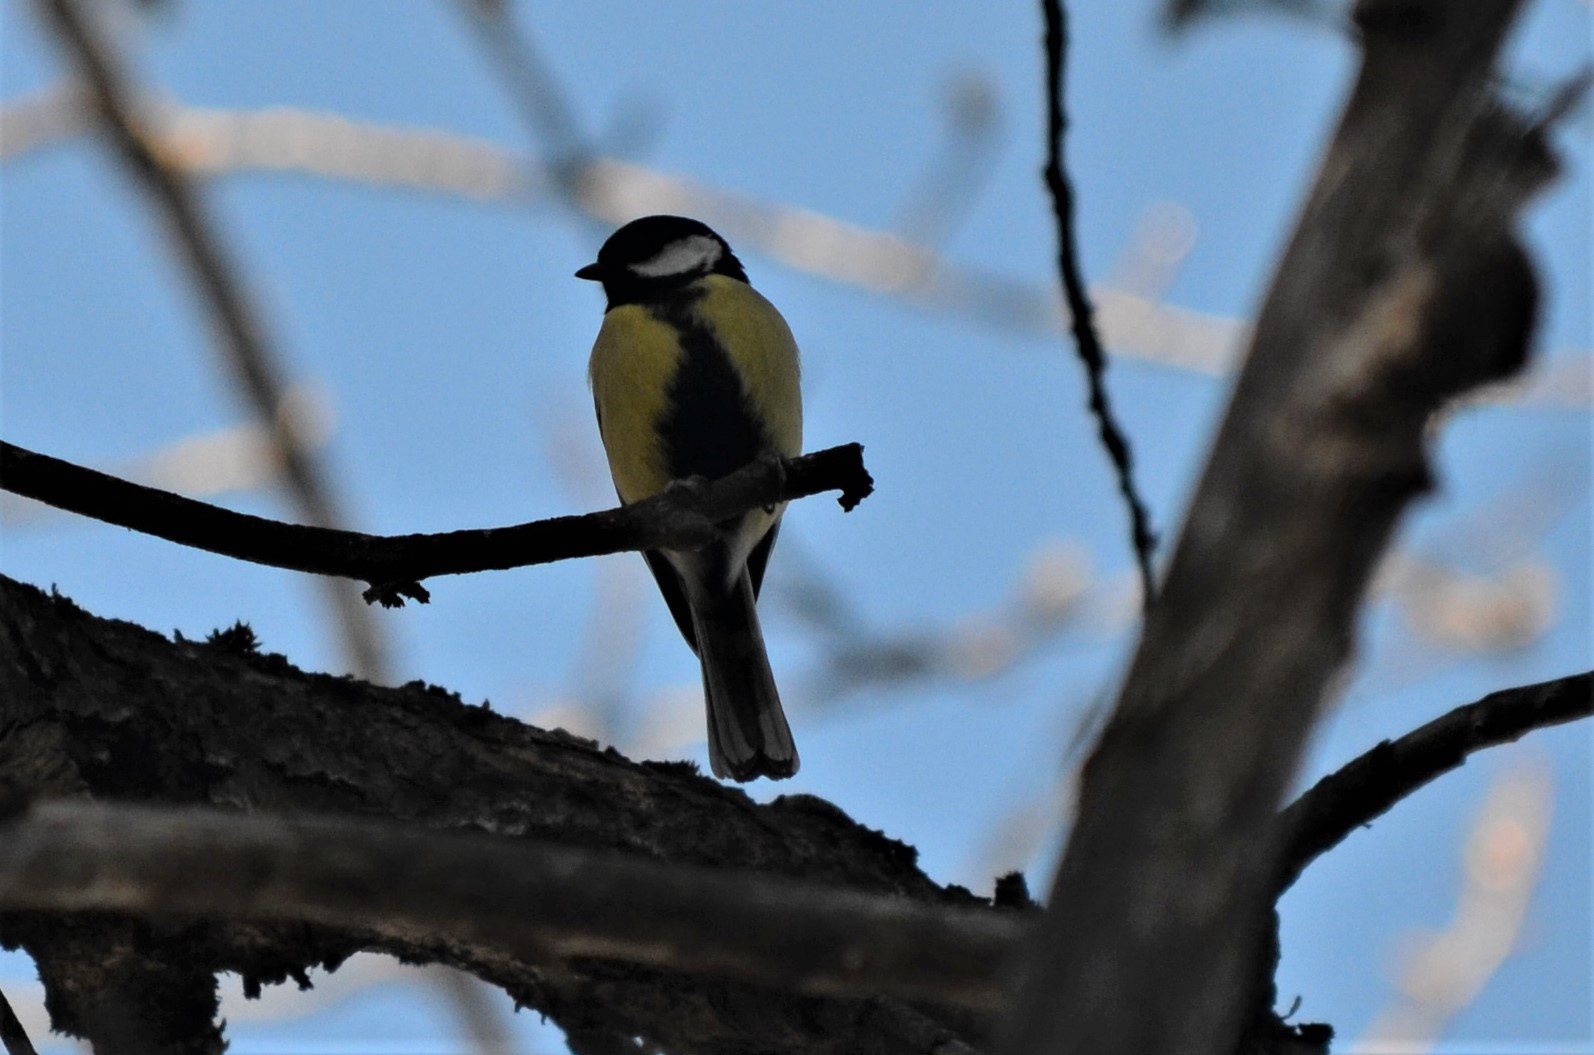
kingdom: Animalia
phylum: Chordata
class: Aves
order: Passeriformes
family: Paridae
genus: Parus
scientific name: Parus major
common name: Great tit
